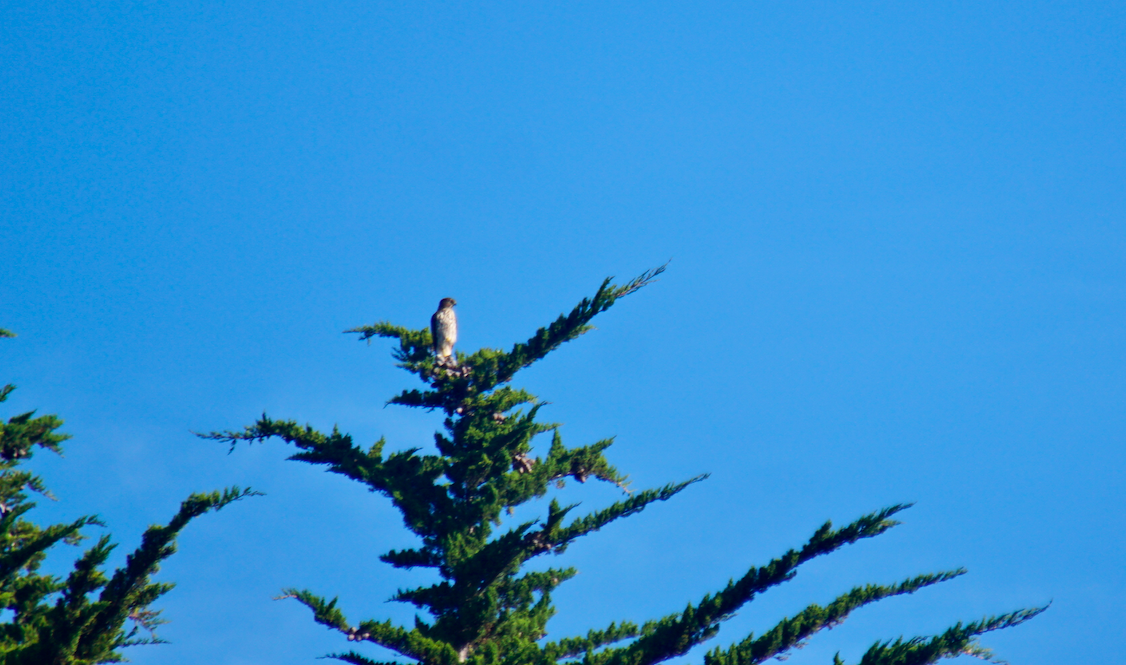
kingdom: Animalia
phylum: Chordata
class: Aves
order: Accipitriformes
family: Accipitridae
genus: Accipiter
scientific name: Accipiter cooperii
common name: Cooper's hawk
